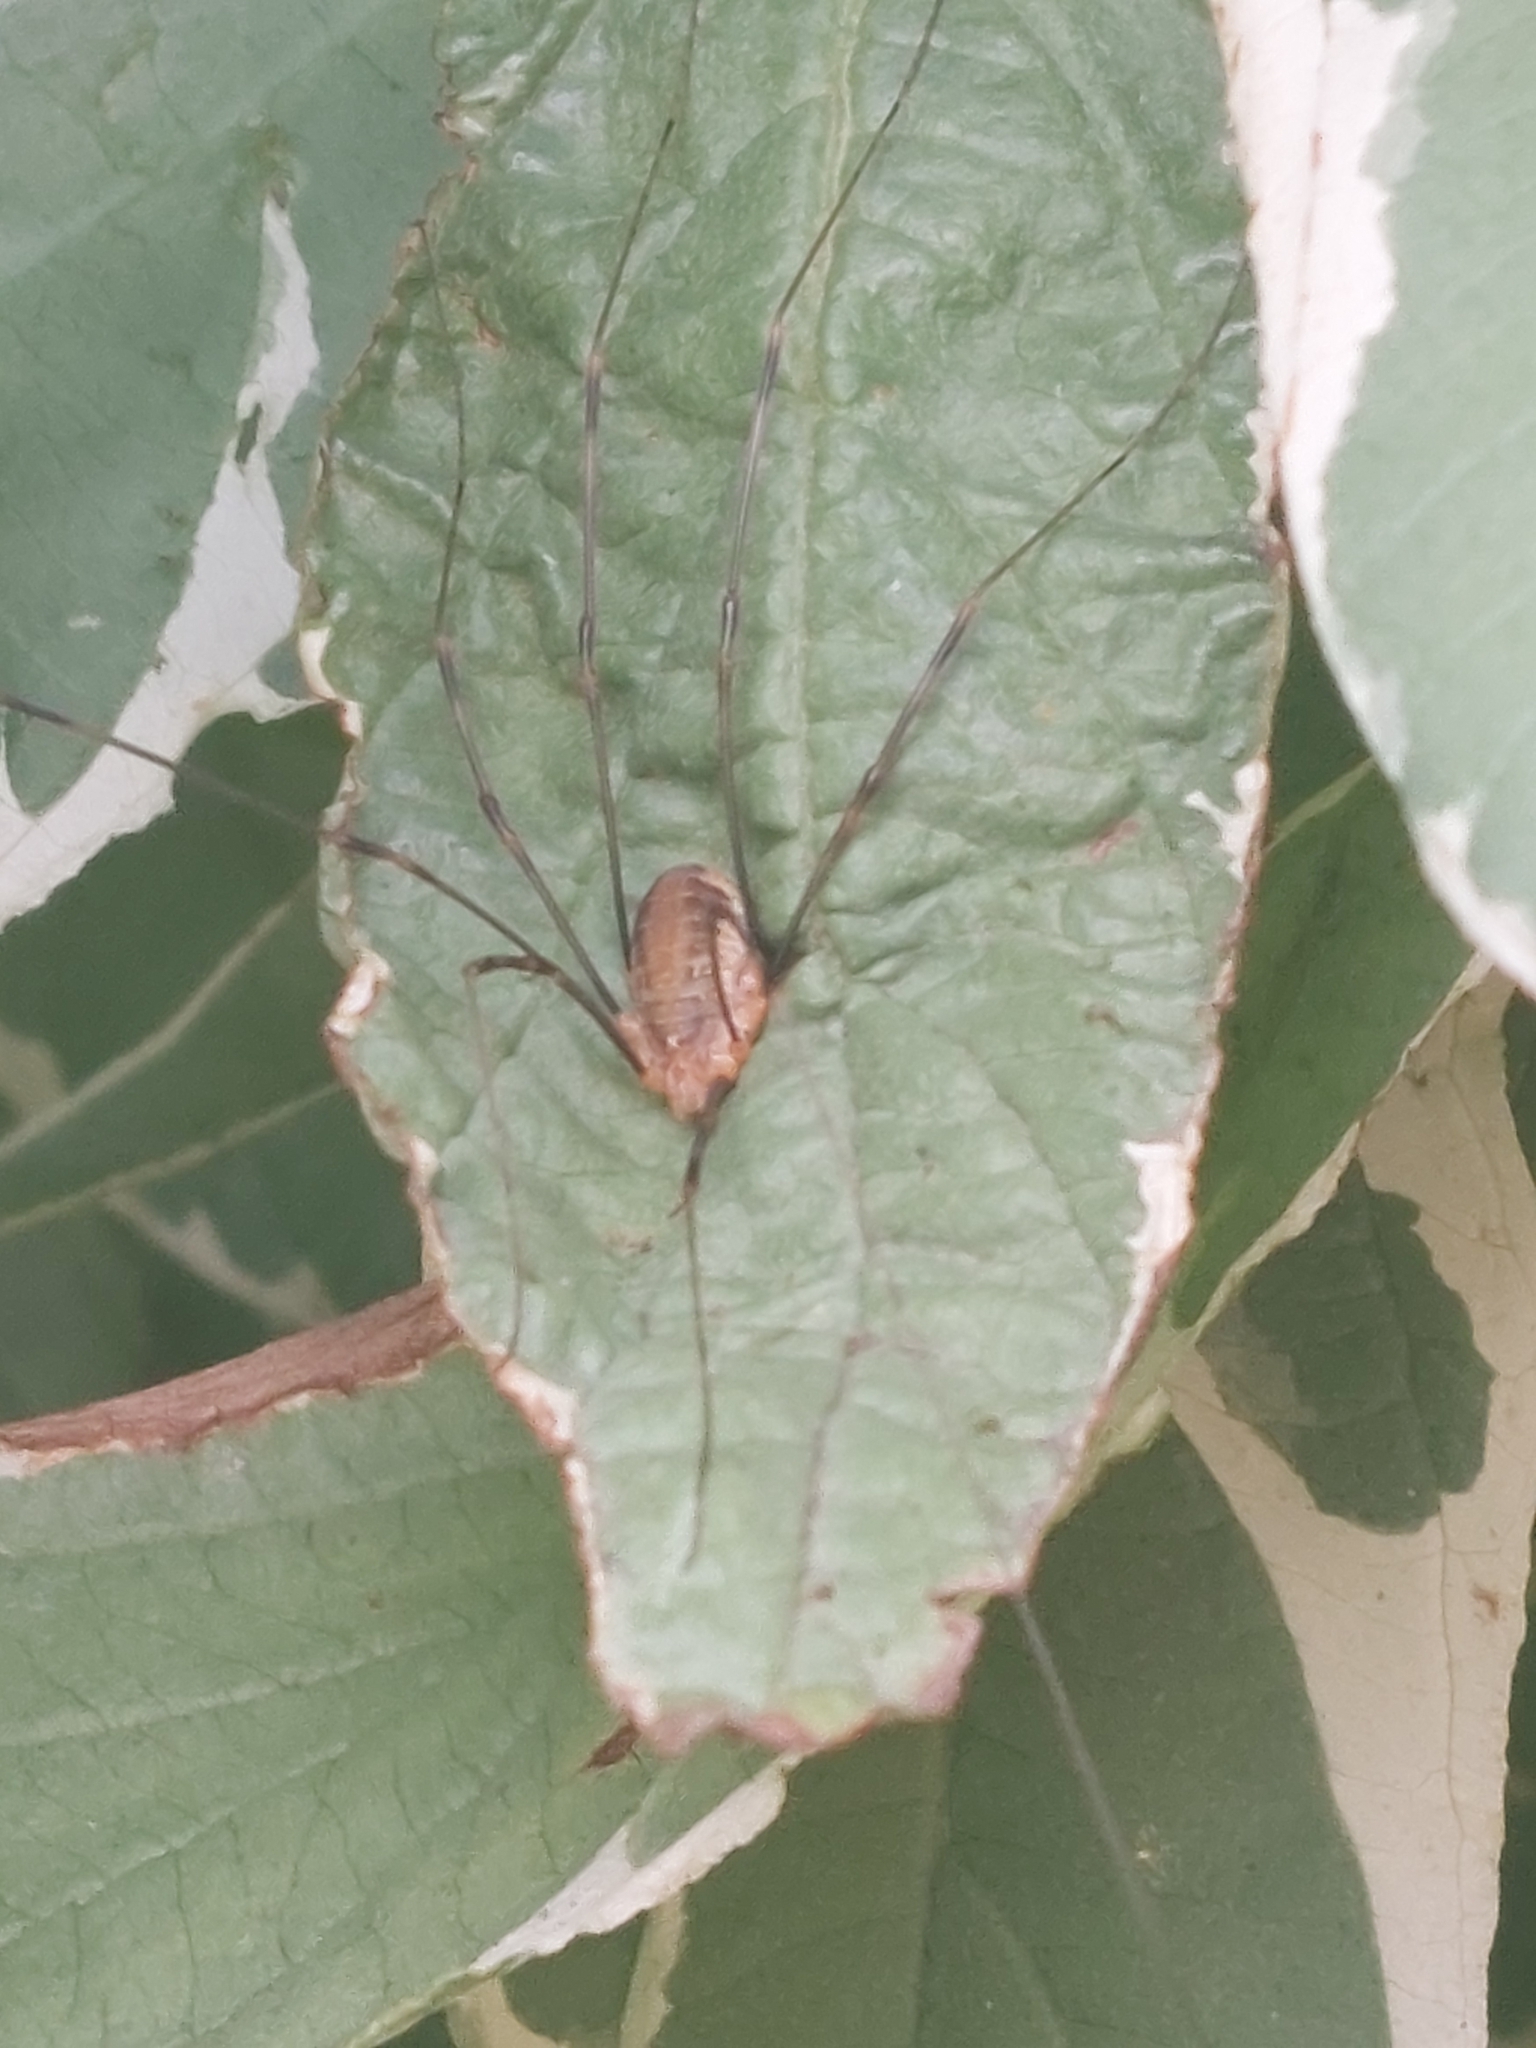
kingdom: Animalia
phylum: Arthropoda
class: Arachnida
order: Opiliones
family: Phalangiidae
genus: Opilio
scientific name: Opilio canestrinii
